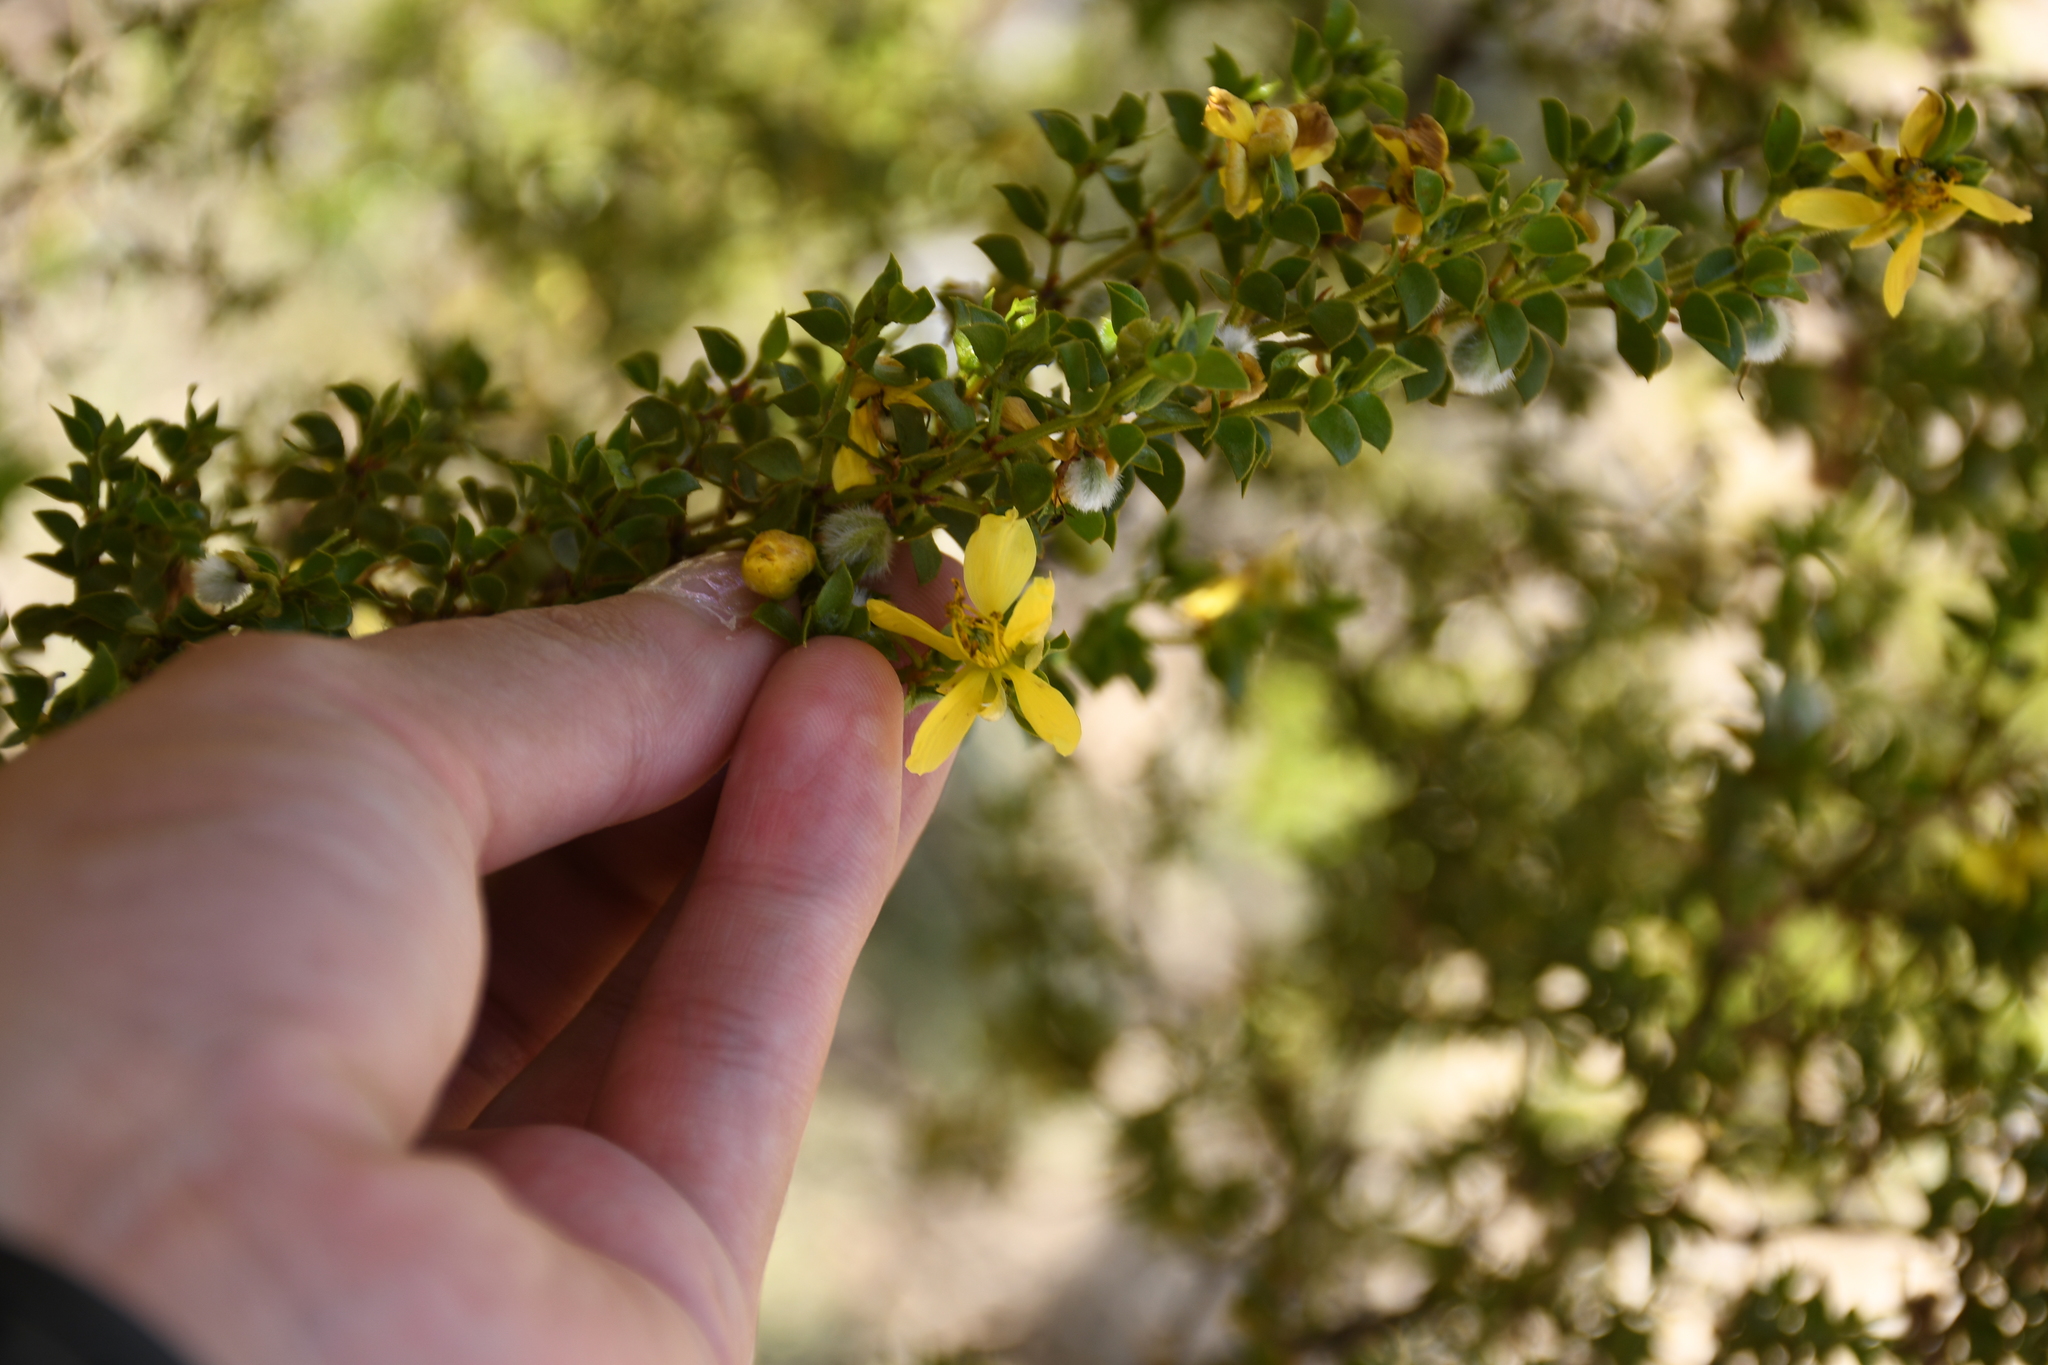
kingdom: Plantae
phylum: Tracheophyta
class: Magnoliopsida
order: Zygophyllales
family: Zygophyllaceae
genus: Larrea
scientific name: Larrea tridentata
